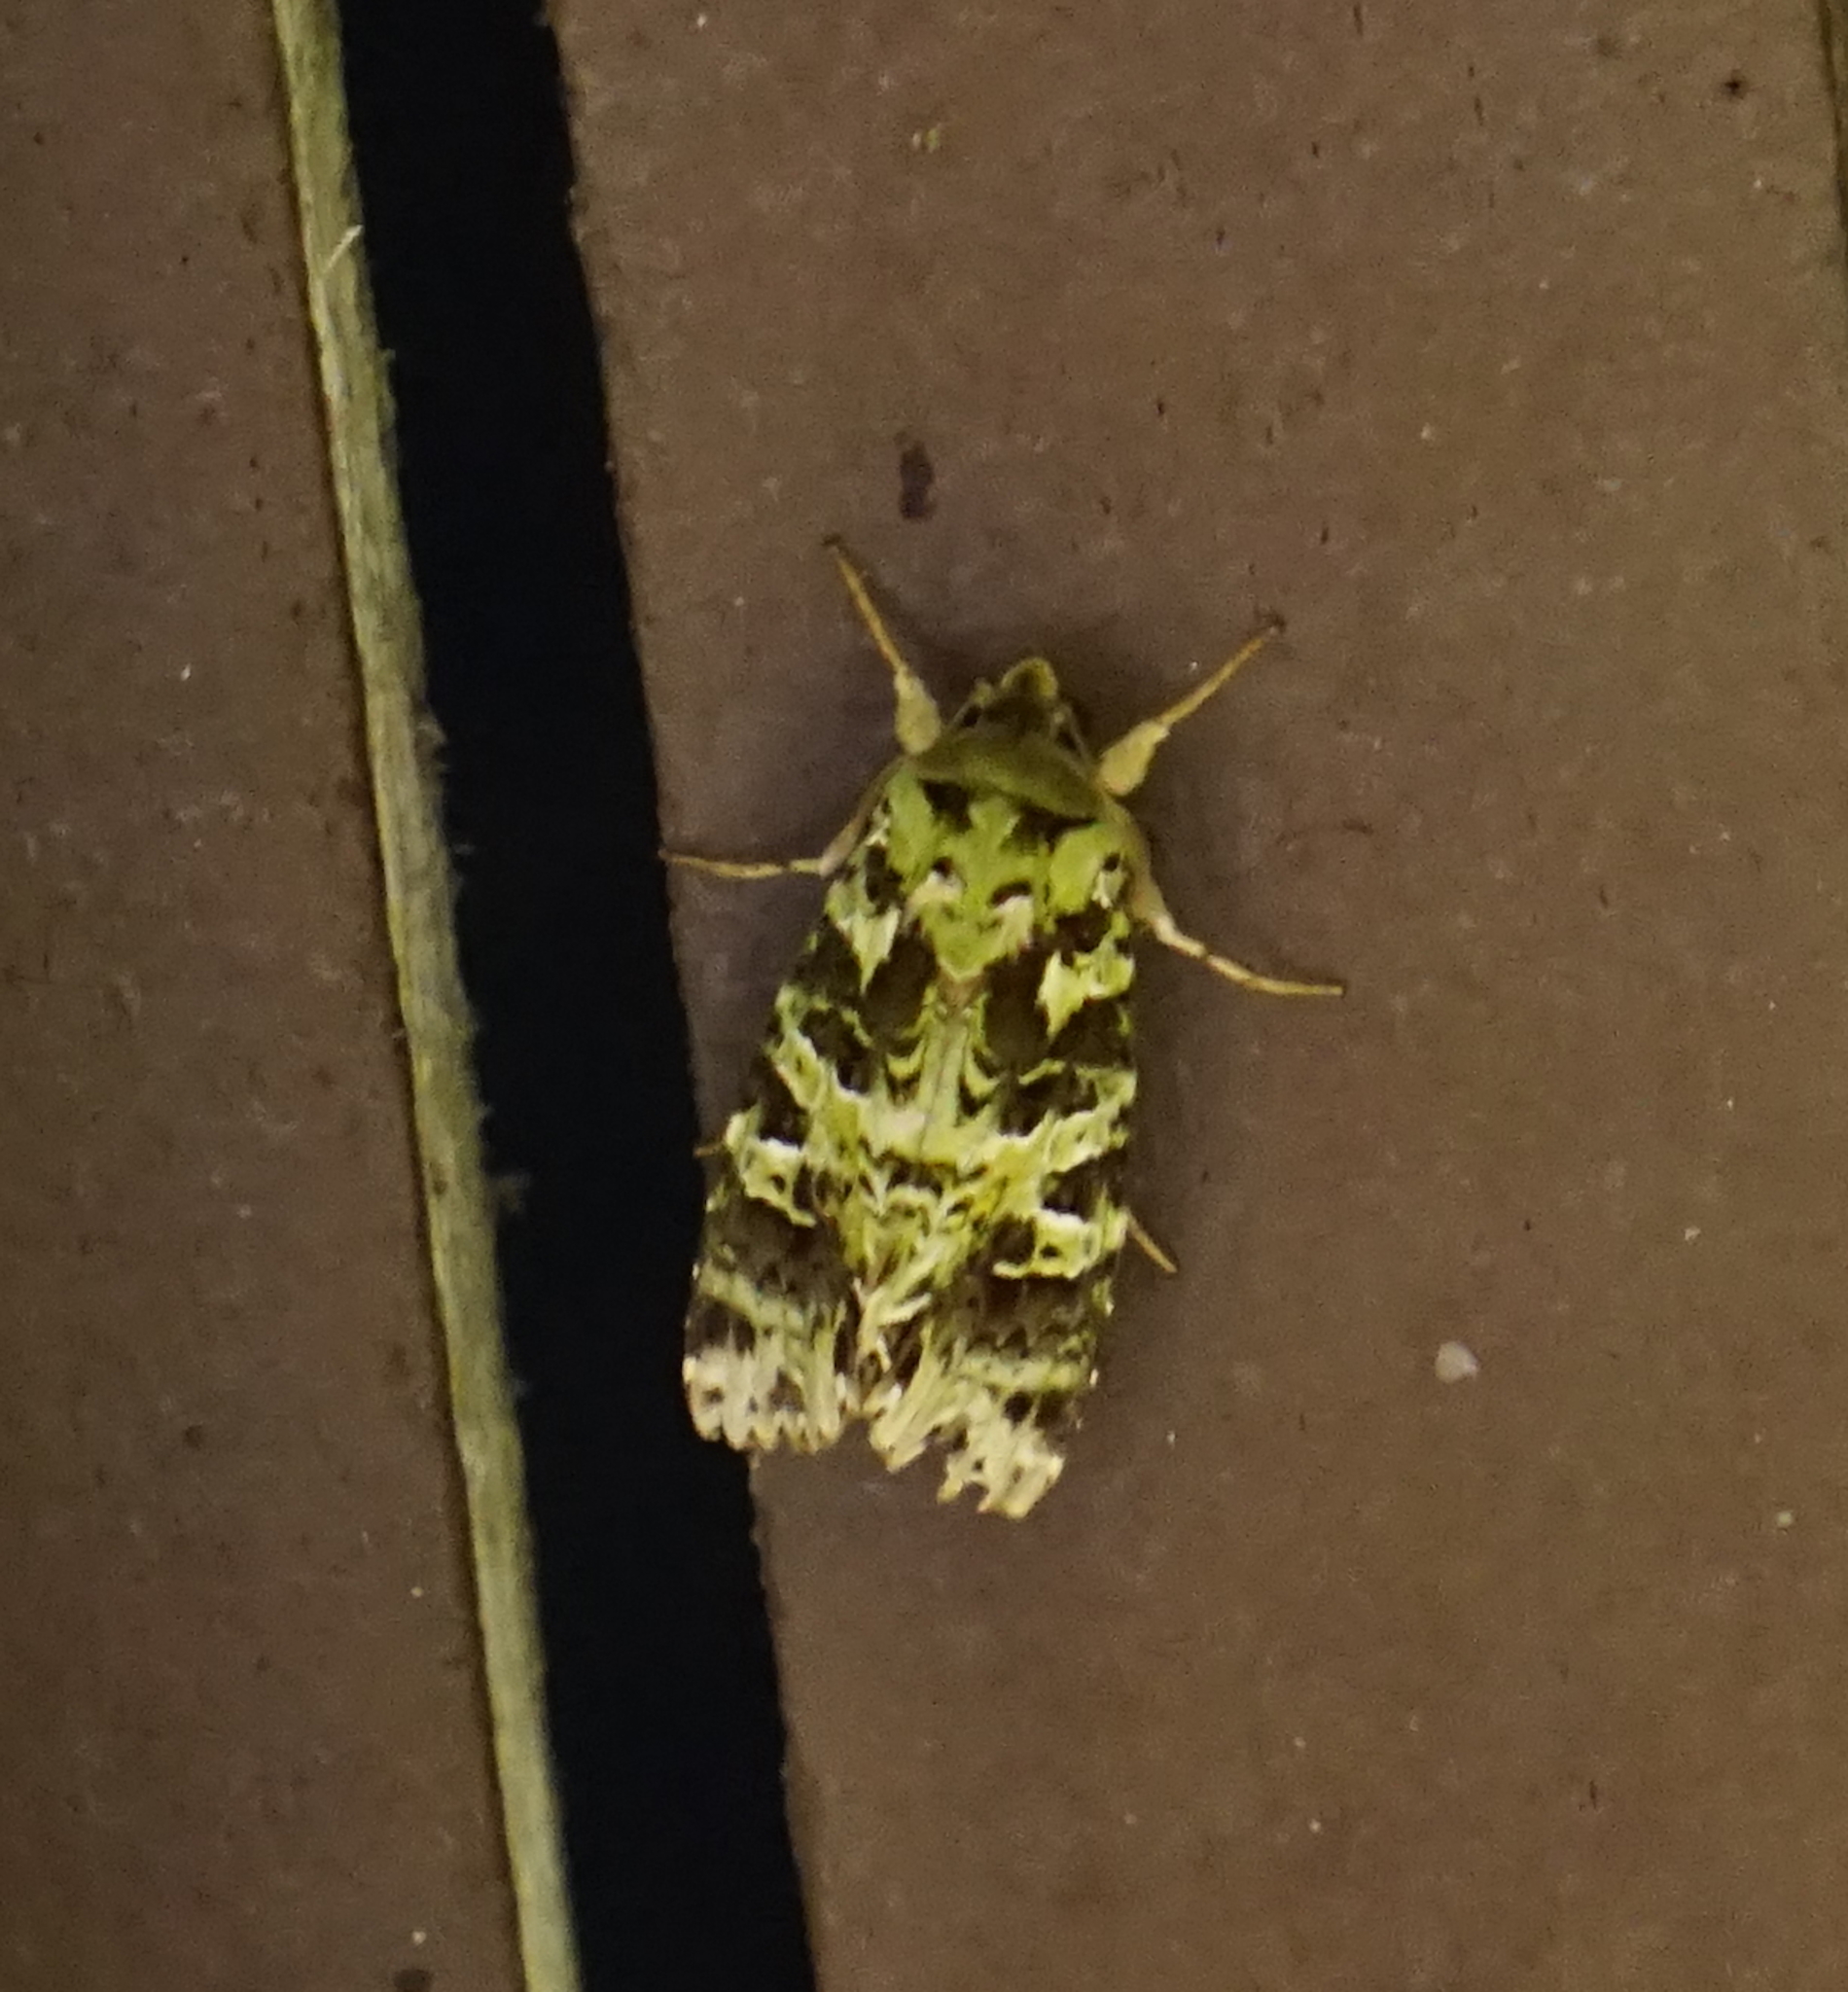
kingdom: Animalia
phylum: Arthropoda
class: Insecta
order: Lepidoptera
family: Noctuidae
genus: Checupa
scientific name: Checupa curvivena
